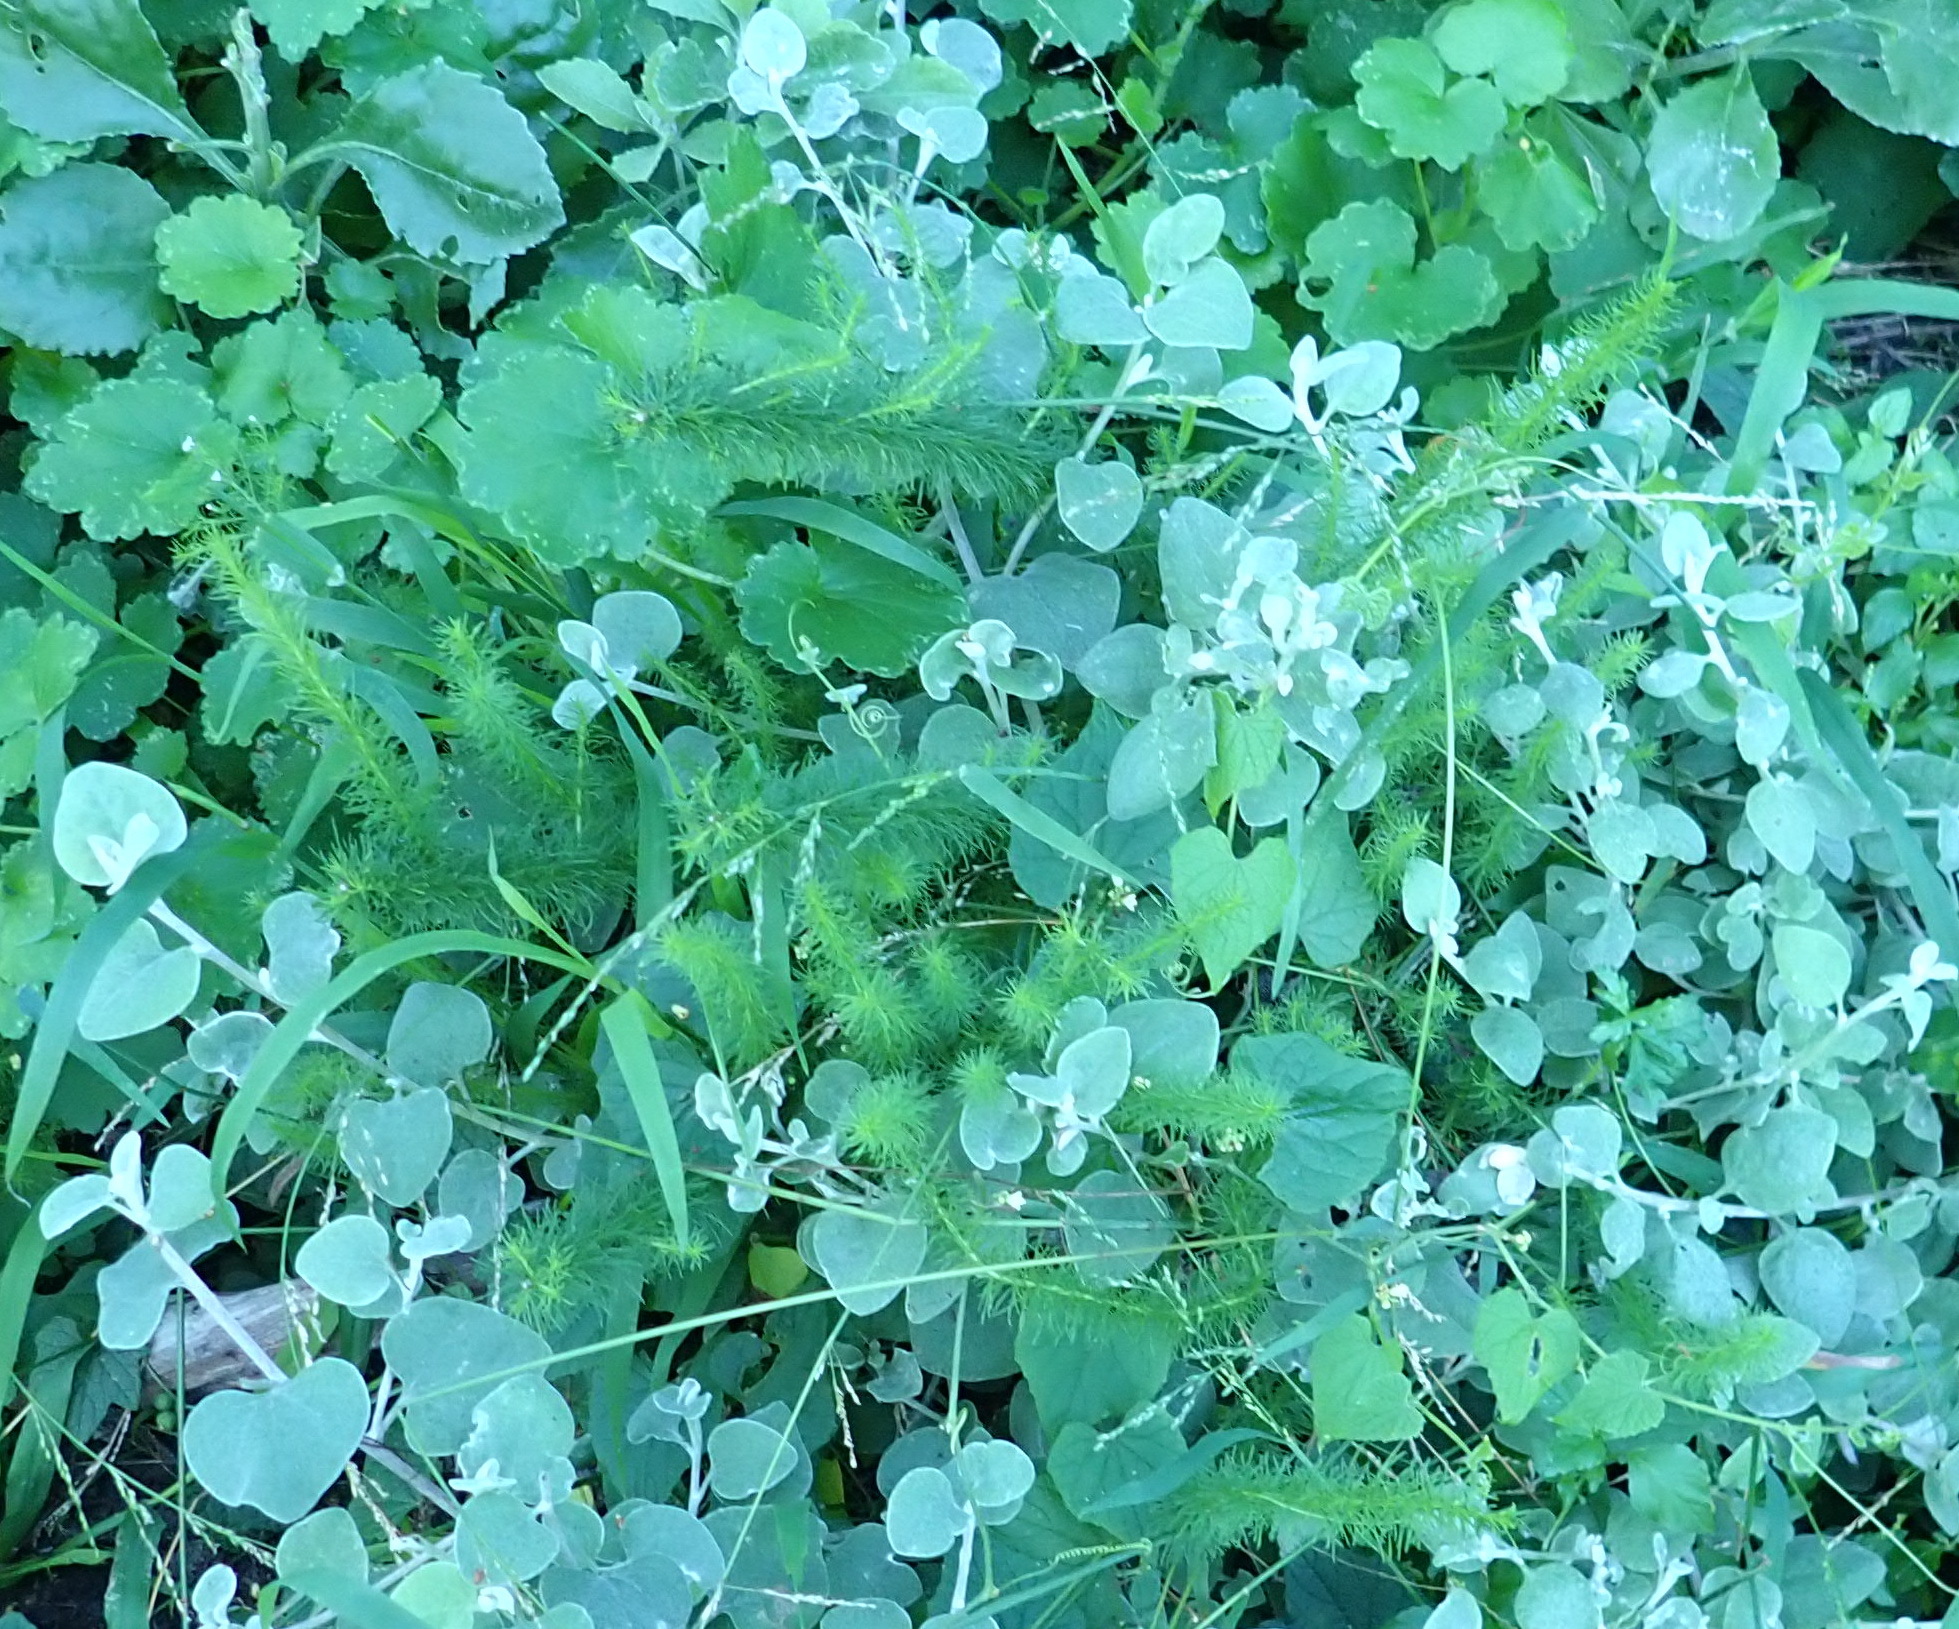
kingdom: Plantae
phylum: Tracheophyta
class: Magnoliopsida
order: Lamiales
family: Scrophulariaceae
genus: Selago
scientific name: Selago corymbosa
